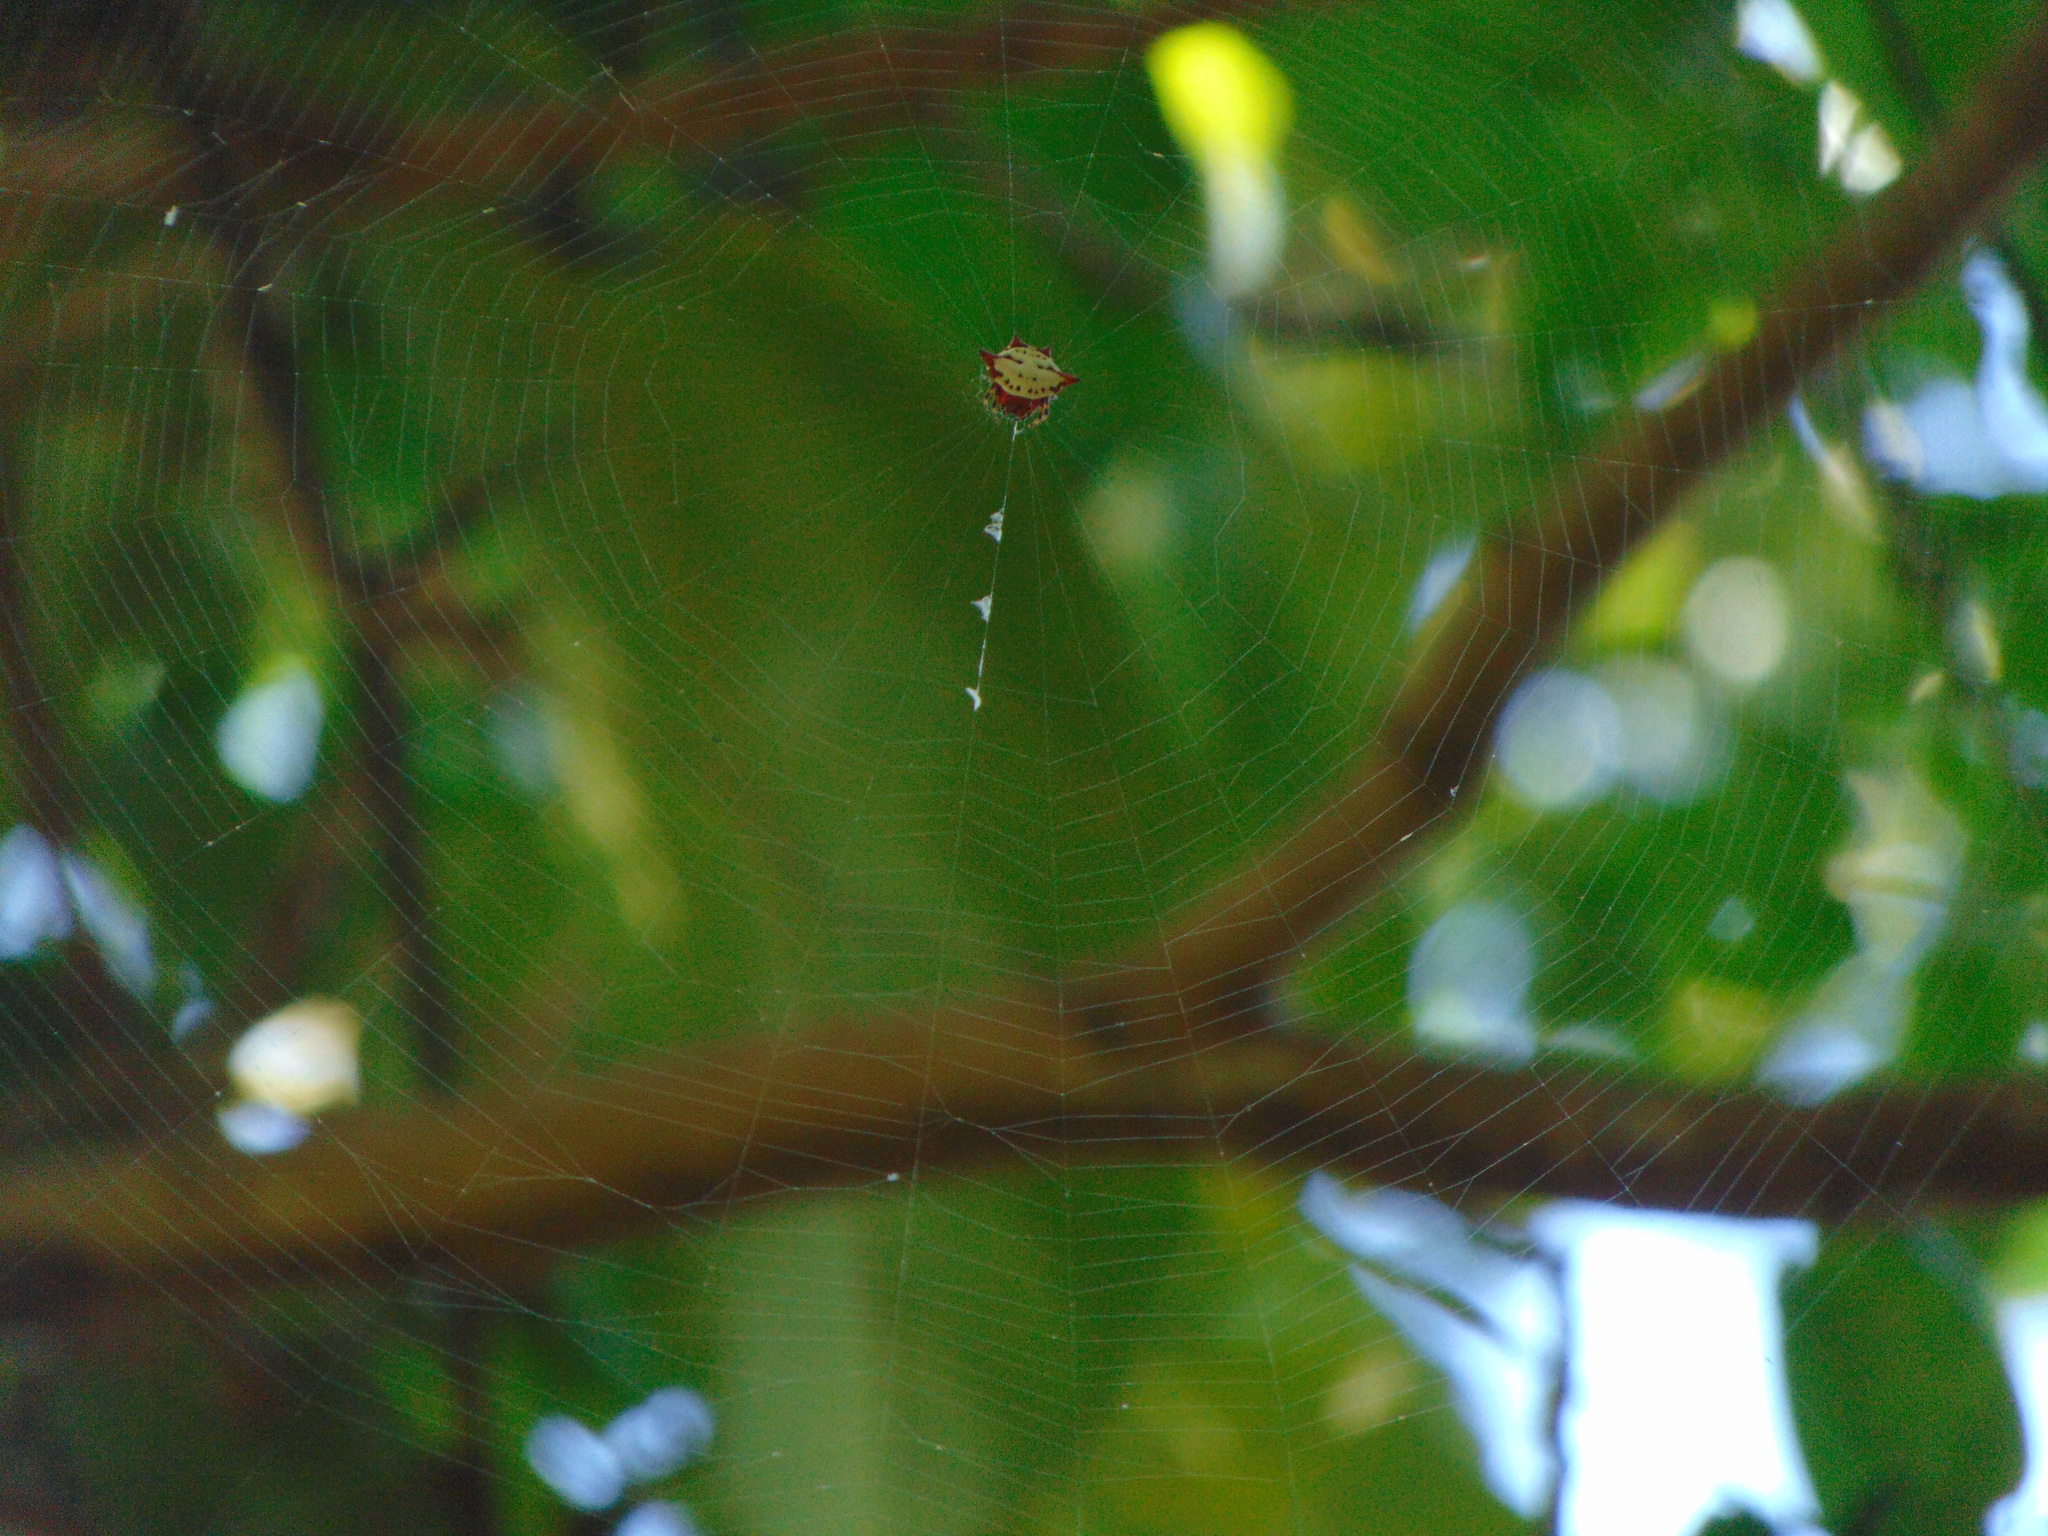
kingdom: Animalia
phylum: Arthropoda
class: Arachnida
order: Araneae
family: Araneidae
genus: Gasteracantha
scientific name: Gasteracantha cancriformis
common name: Orb weavers
